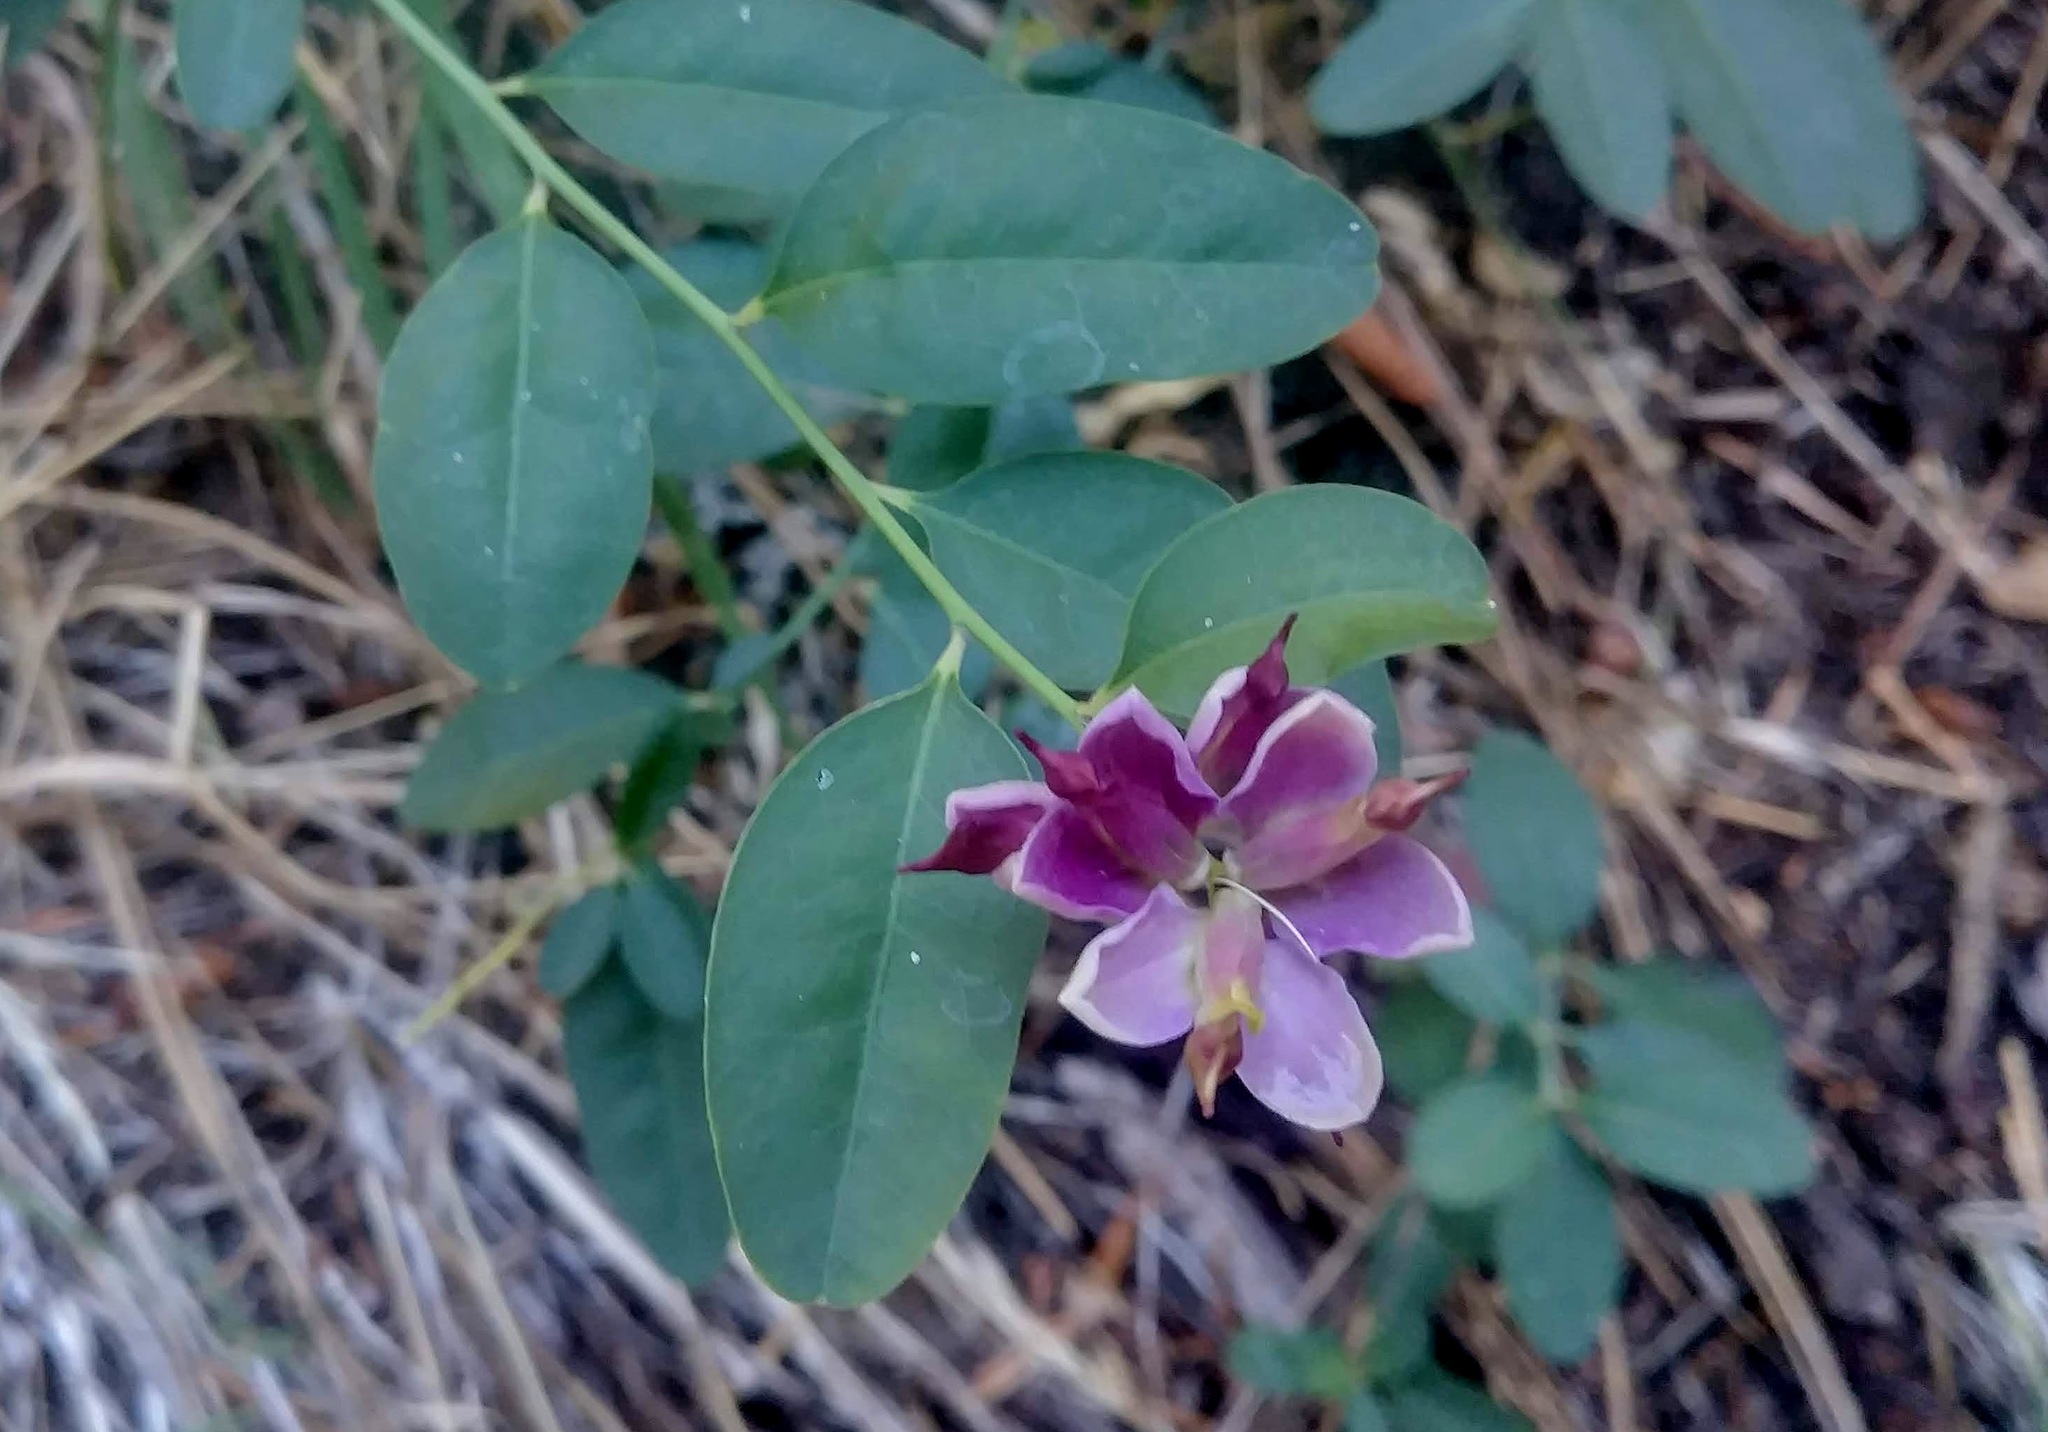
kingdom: Plantae
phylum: Tracheophyta
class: Magnoliopsida
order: Fabales
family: Polygalaceae
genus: Rhinotropis
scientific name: Rhinotropis cornuta
